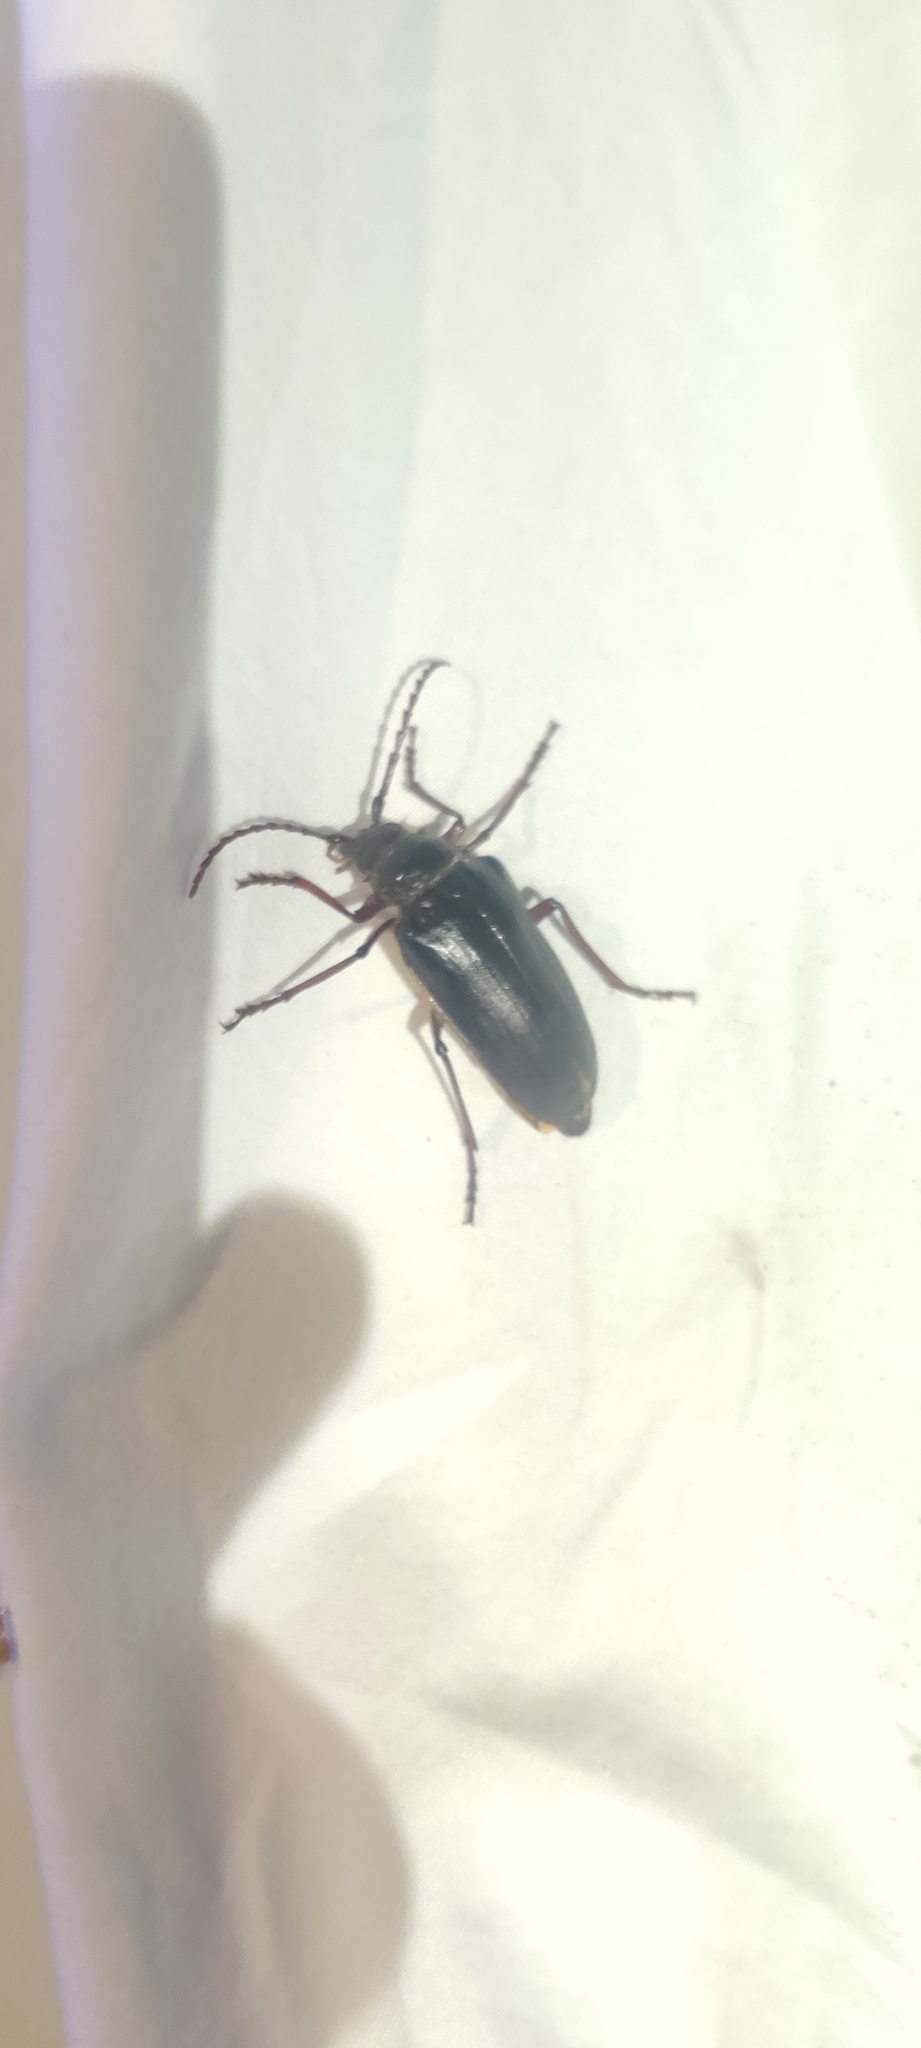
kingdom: Animalia
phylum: Arthropoda
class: Insecta
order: Coleoptera
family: Cerambycidae
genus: Prionus
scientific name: Prionus californicus
